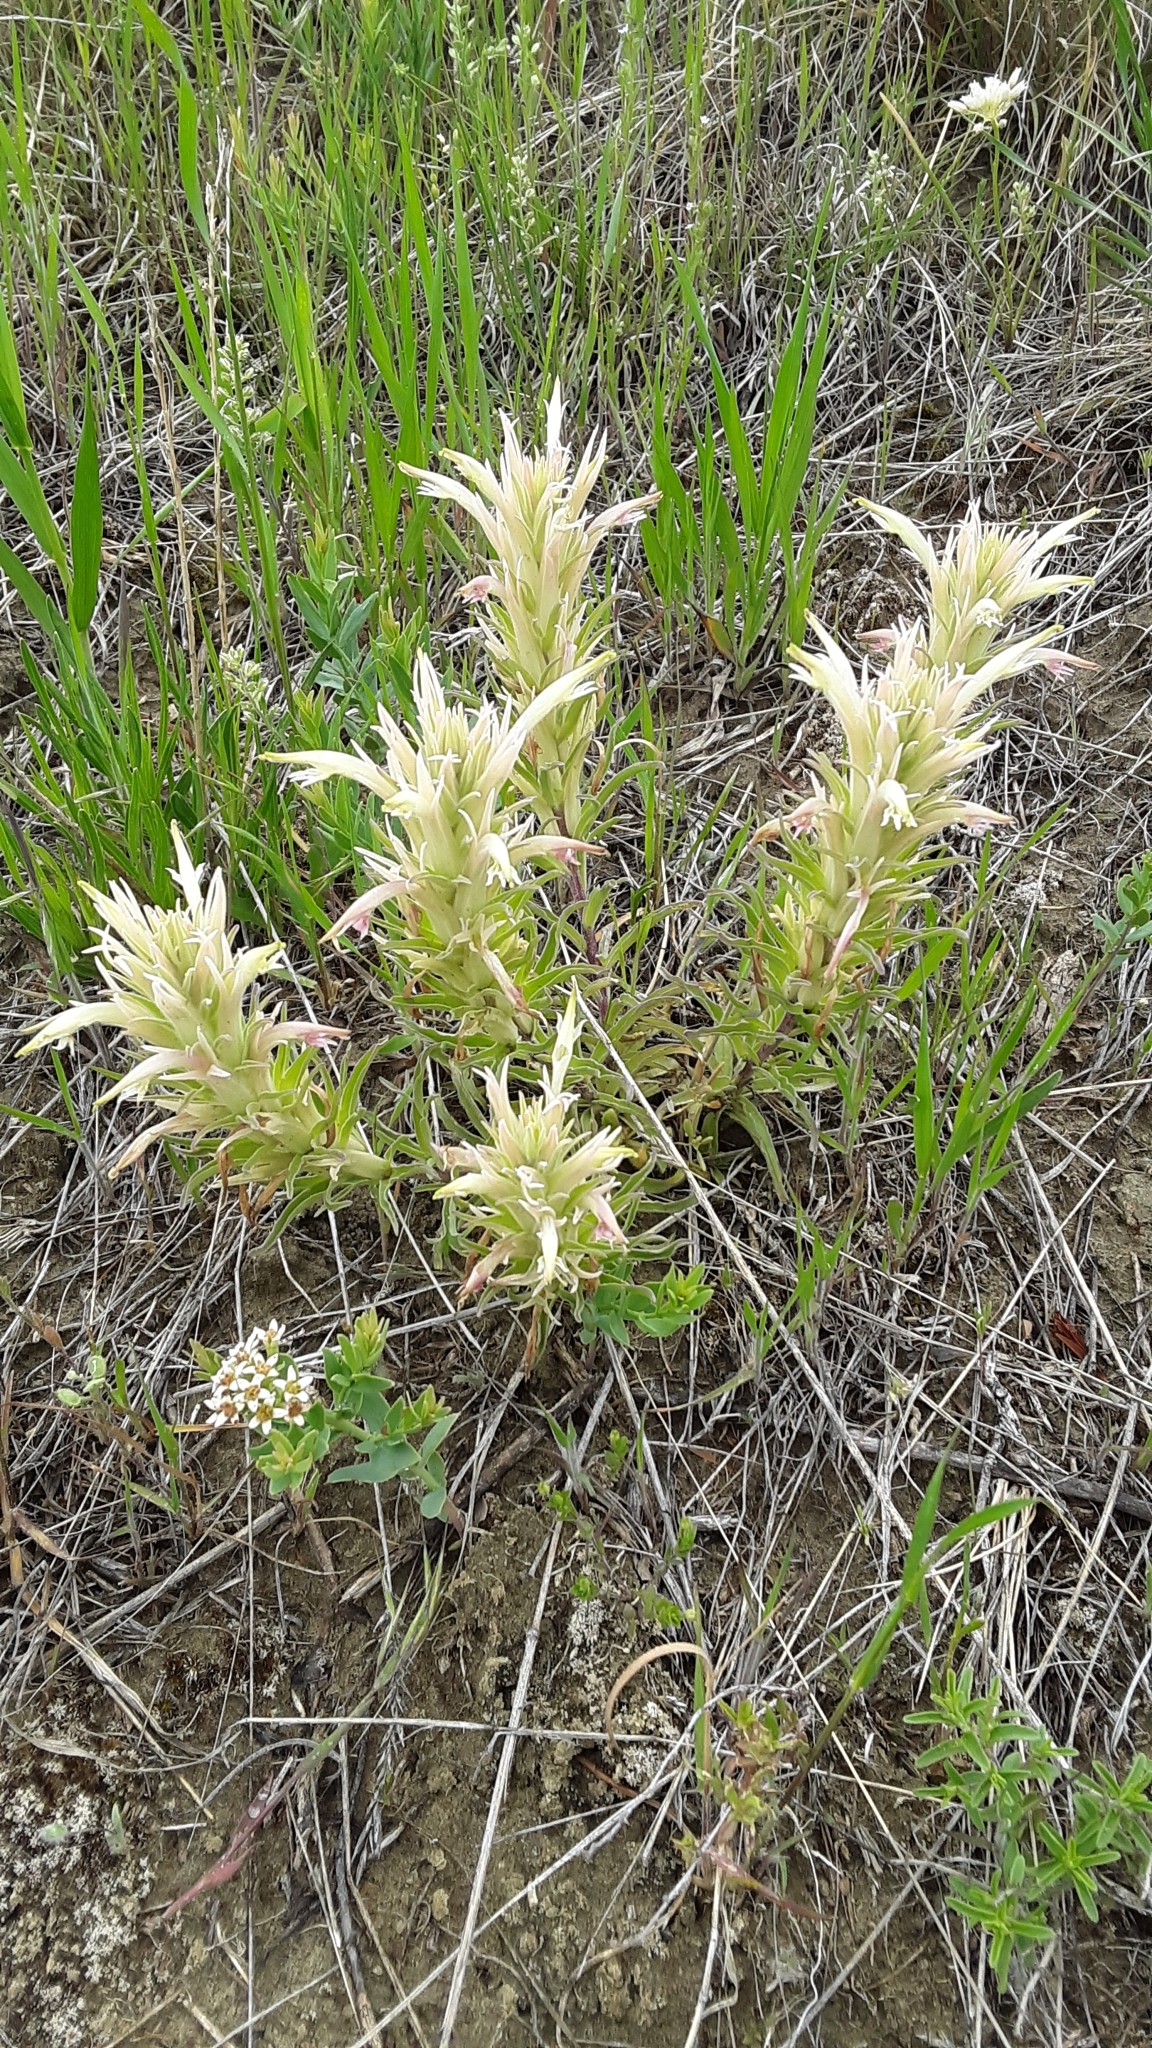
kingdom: Plantae
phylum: Tracheophyta
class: Magnoliopsida
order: Lamiales
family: Orobanchaceae
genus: Castilleja
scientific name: Castilleja sessiliflora
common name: Downy paintbrush
